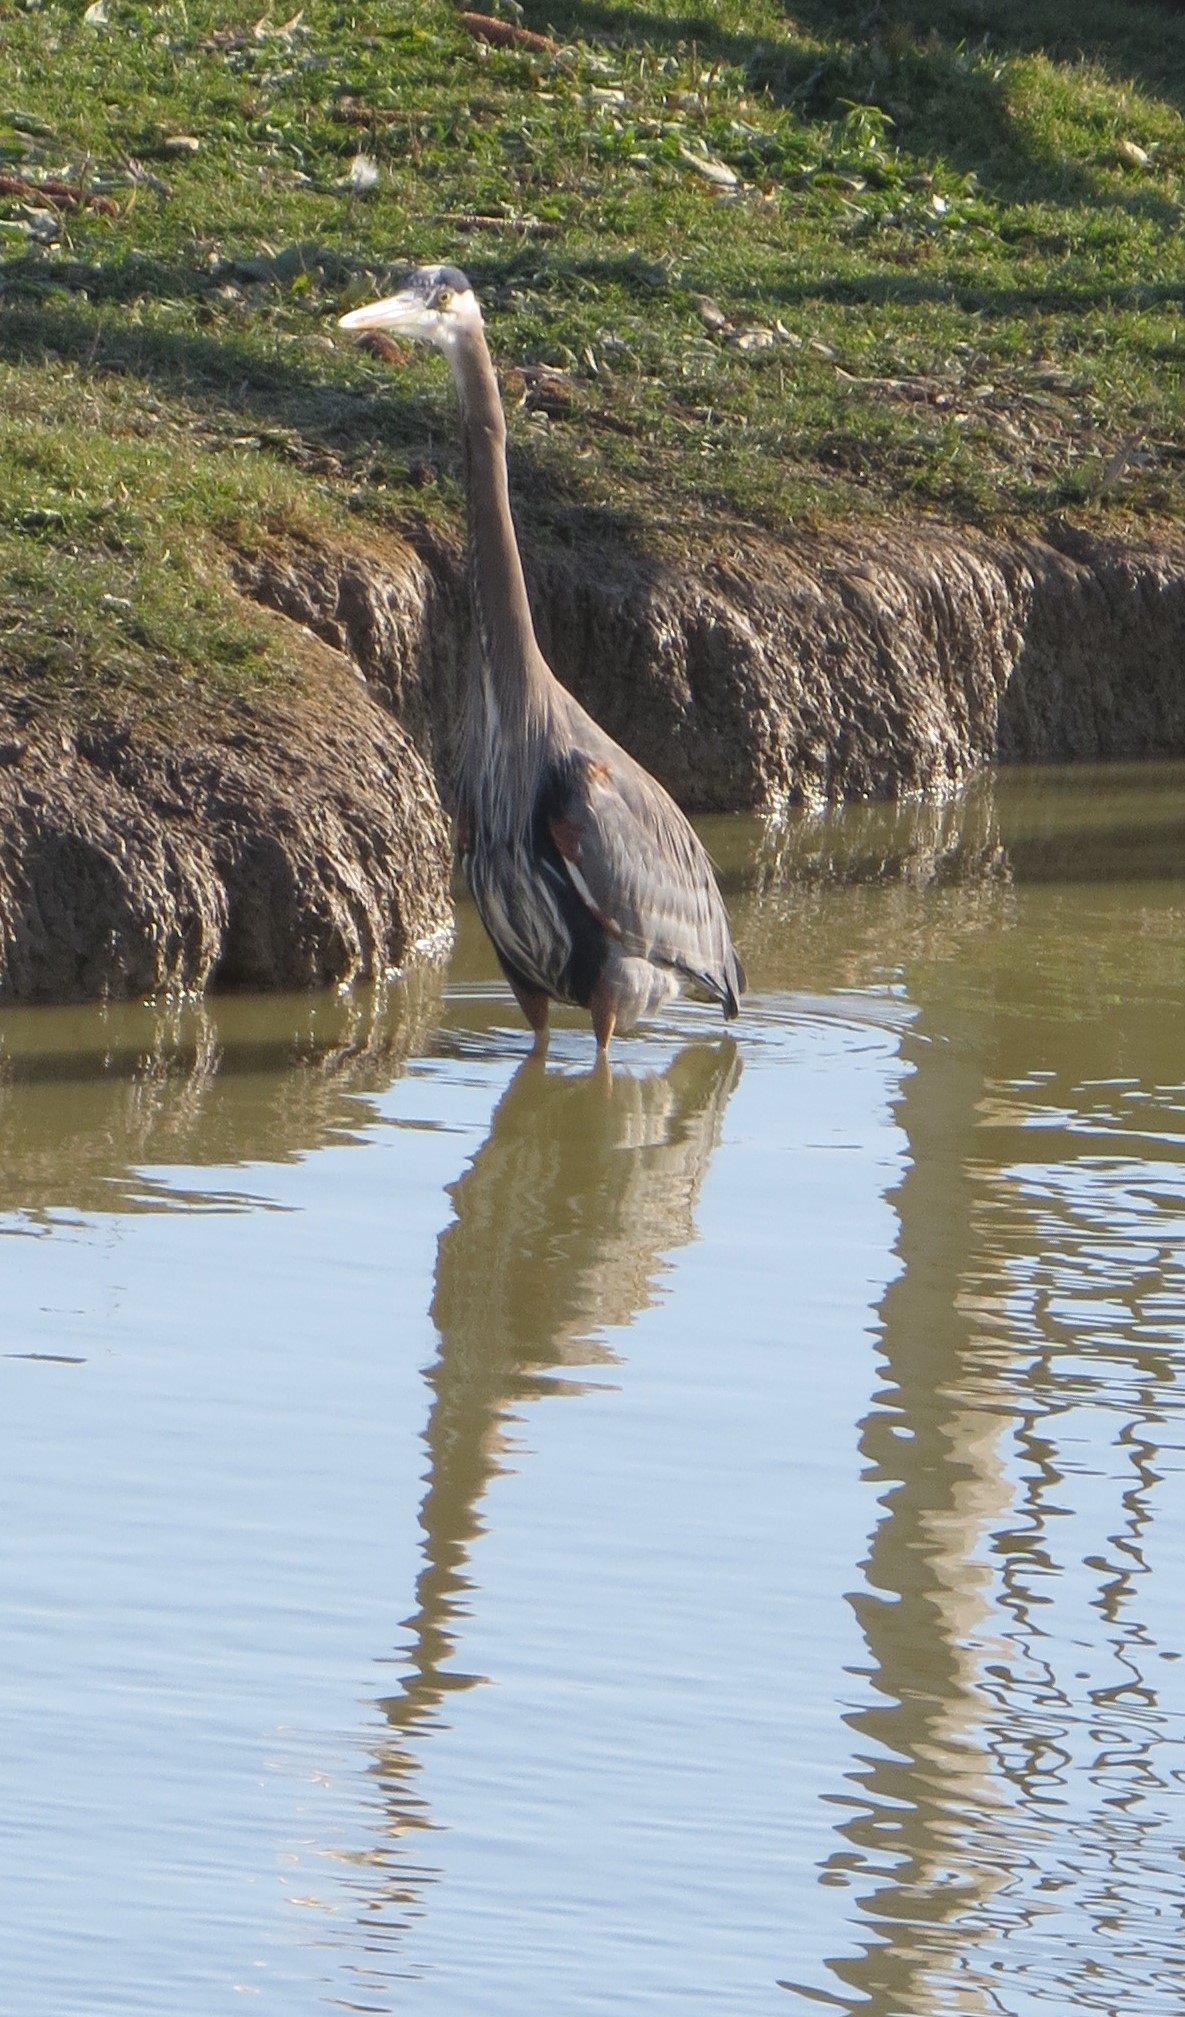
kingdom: Animalia
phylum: Chordata
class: Aves
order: Pelecaniformes
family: Ardeidae
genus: Ardea
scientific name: Ardea herodias
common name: Great blue heron
